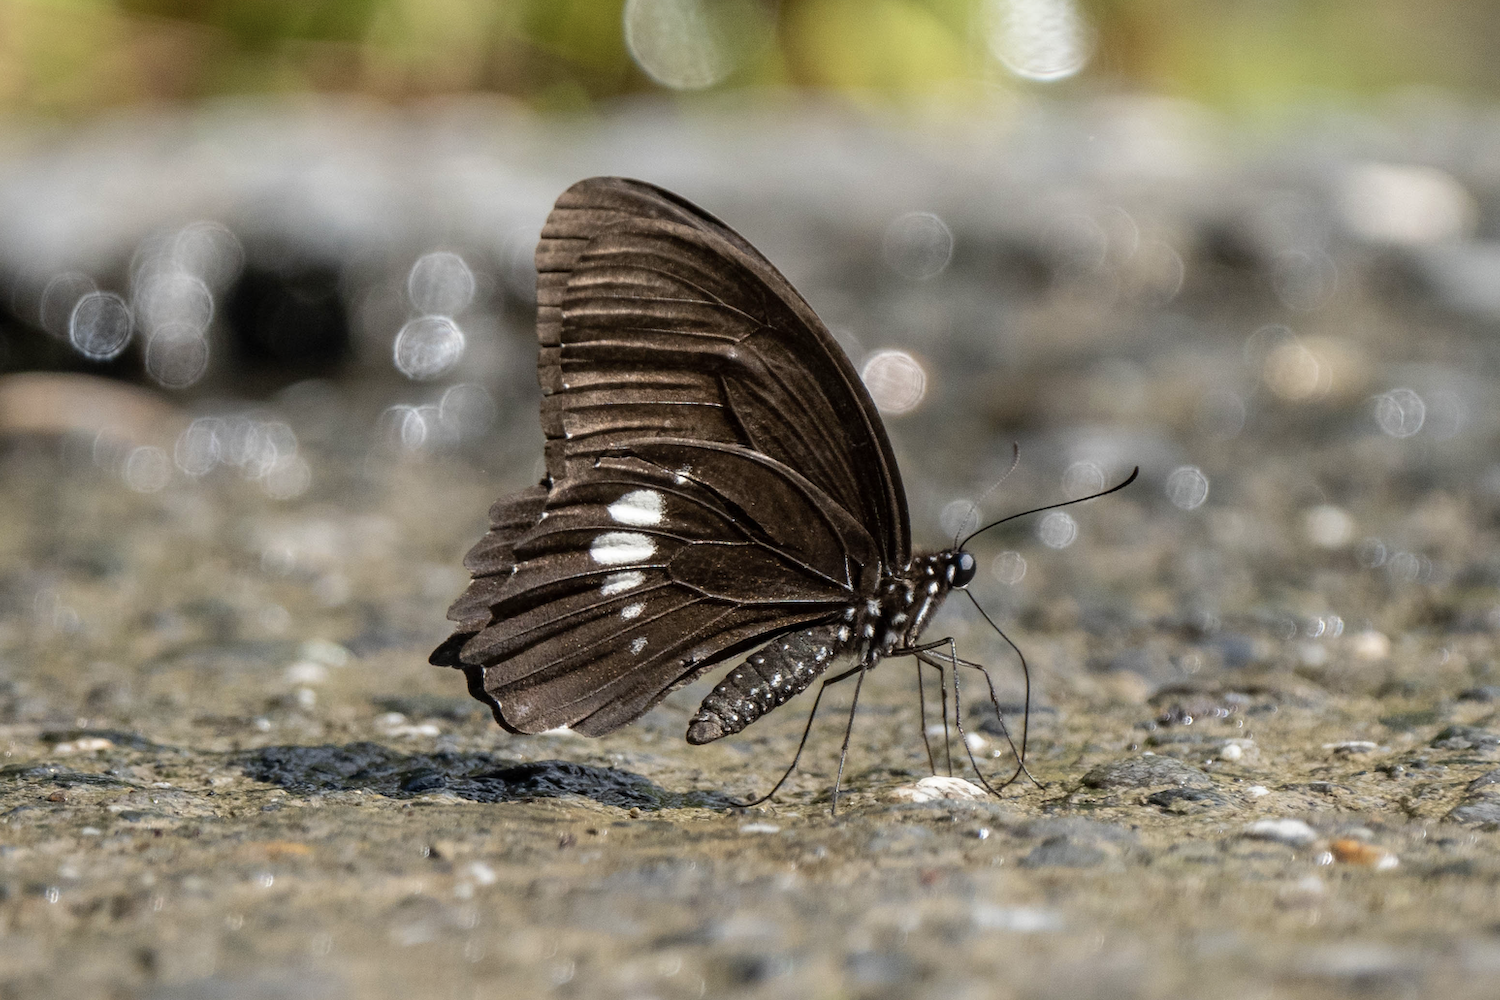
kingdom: Animalia
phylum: Arthropoda
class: Insecta
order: Lepidoptera
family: Papilionidae
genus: Papilio
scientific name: Papilio castor
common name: Common raven
